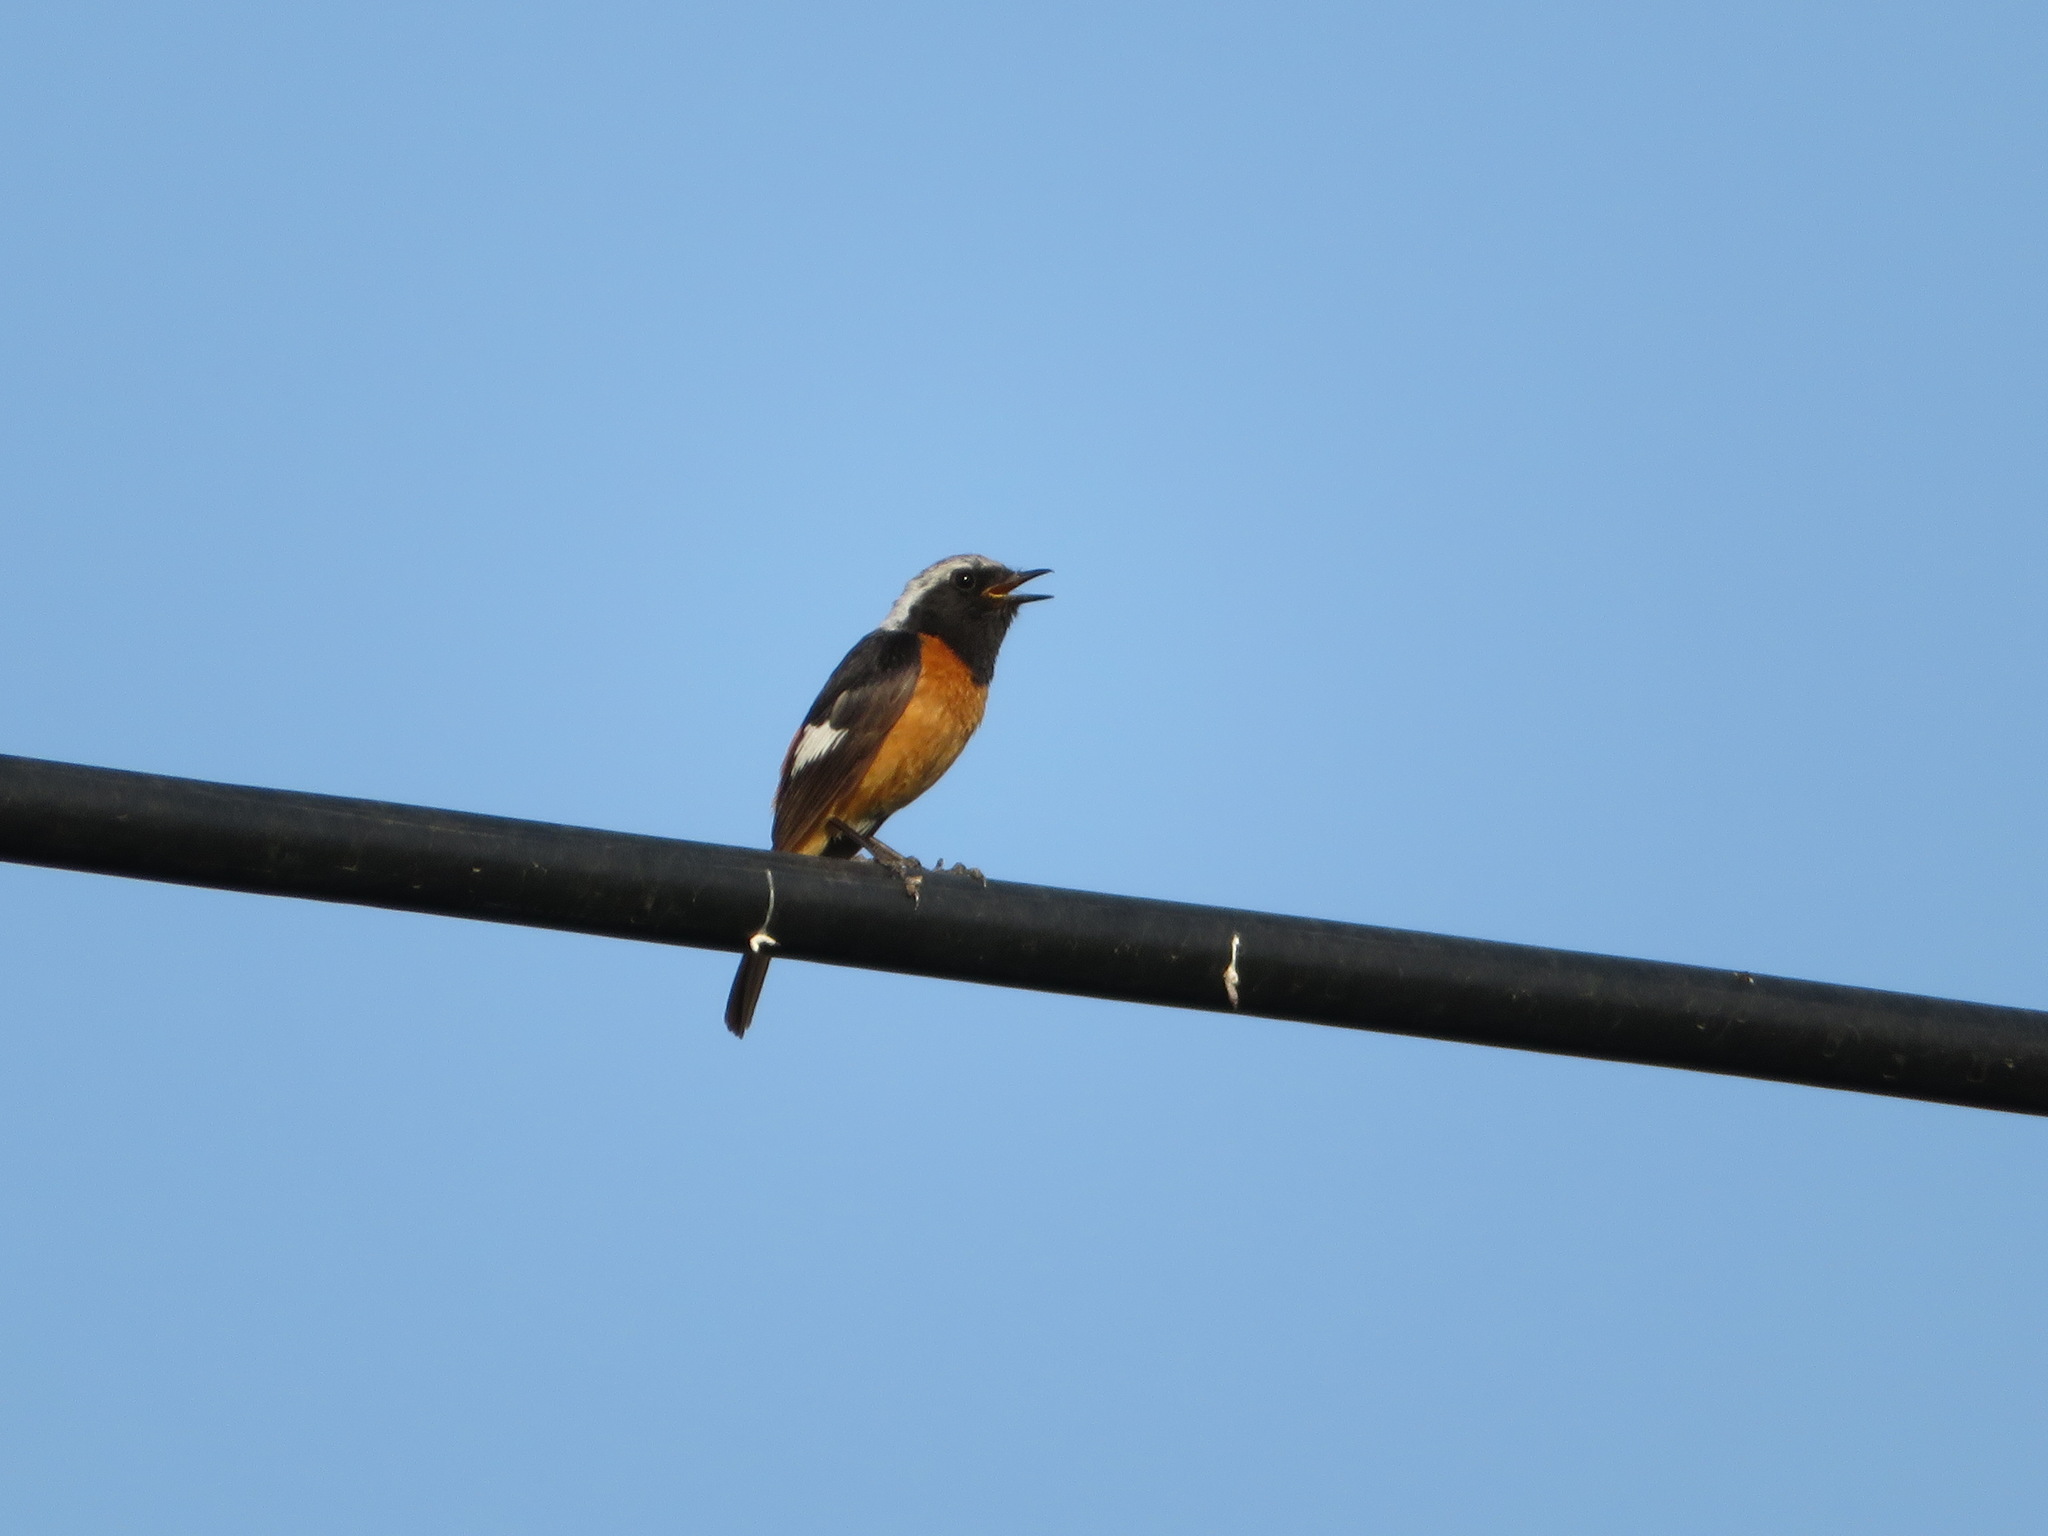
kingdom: Animalia
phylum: Chordata
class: Aves
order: Passeriformes
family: Muscicapidae
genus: Phoenicurus
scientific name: Phoenicurus auroreus
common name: Daurian redstart
